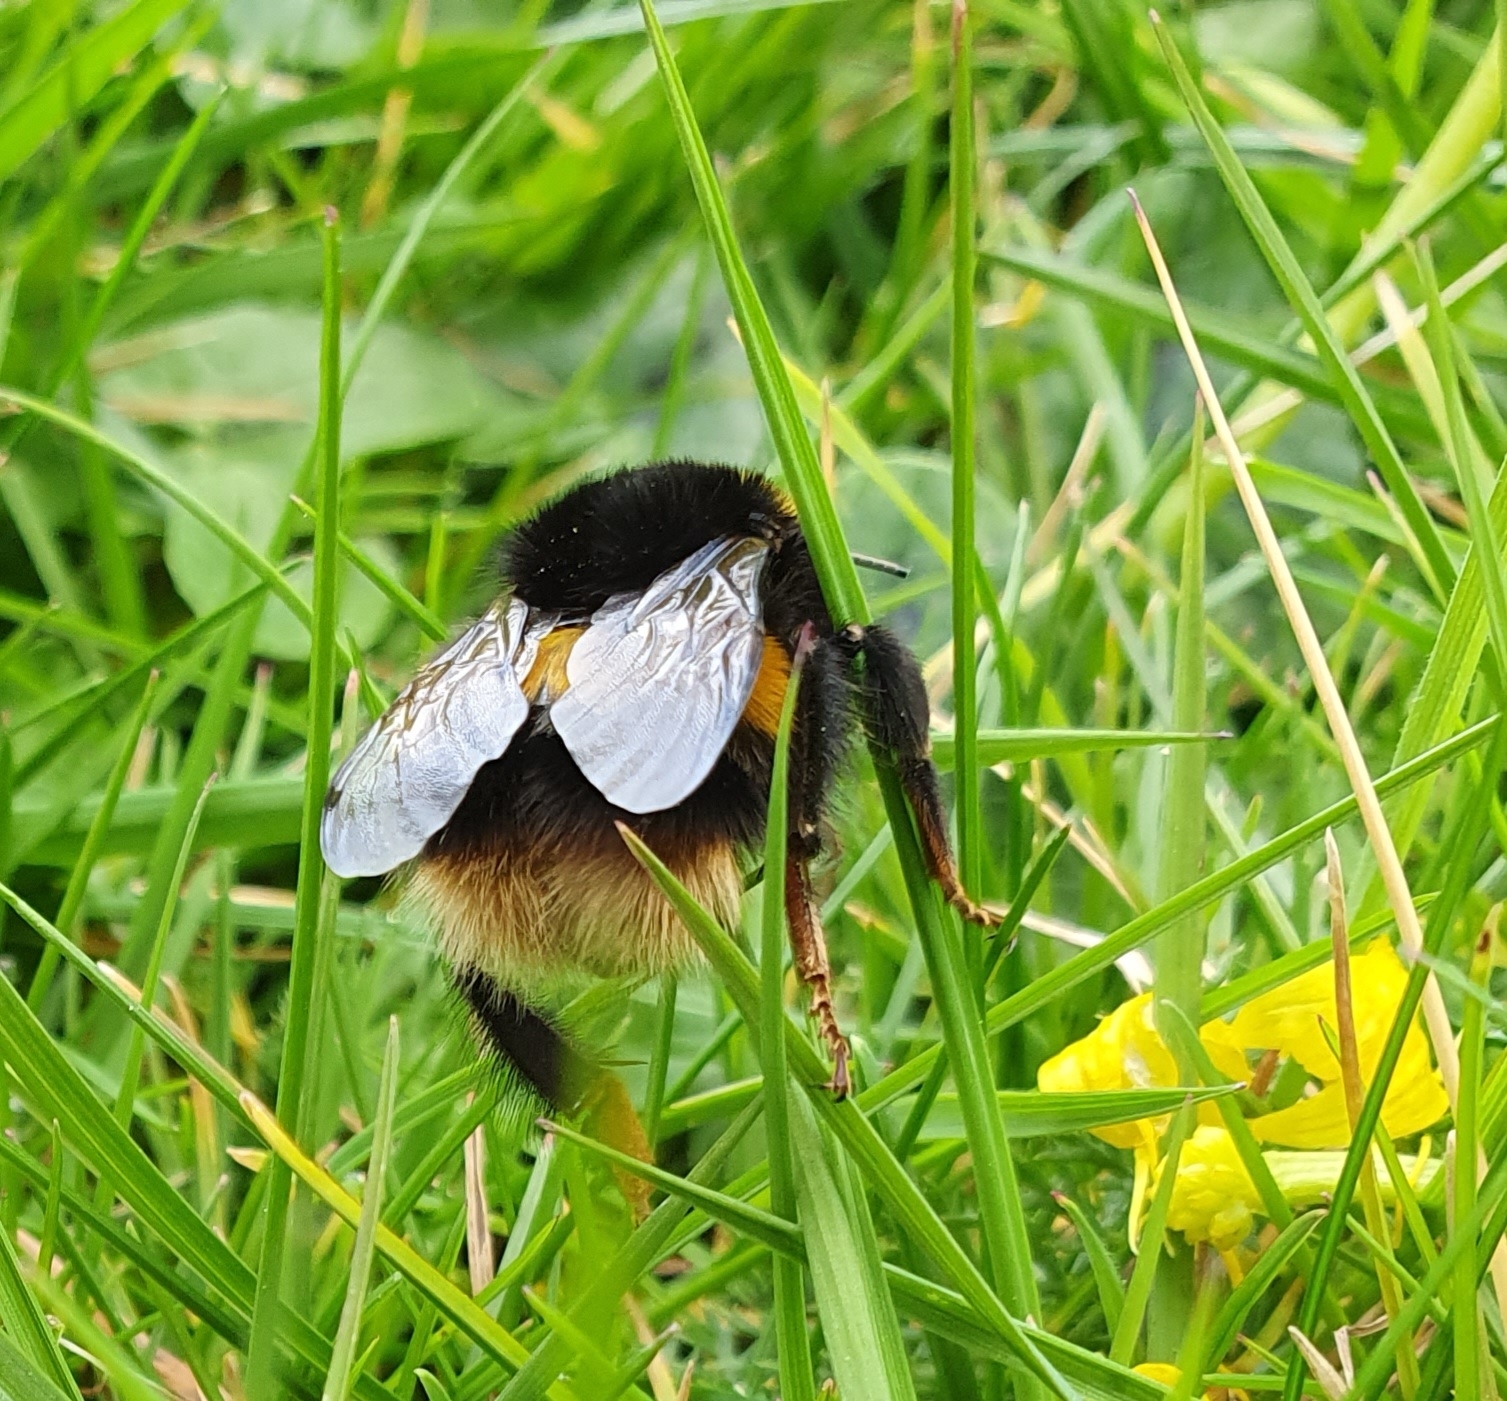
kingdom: Animalia
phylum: Arthropoda
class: Insecta
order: Hymenoptera
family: Apidae
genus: Bombus
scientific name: Bombus terrestris
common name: Buff-tailed bumblebee
